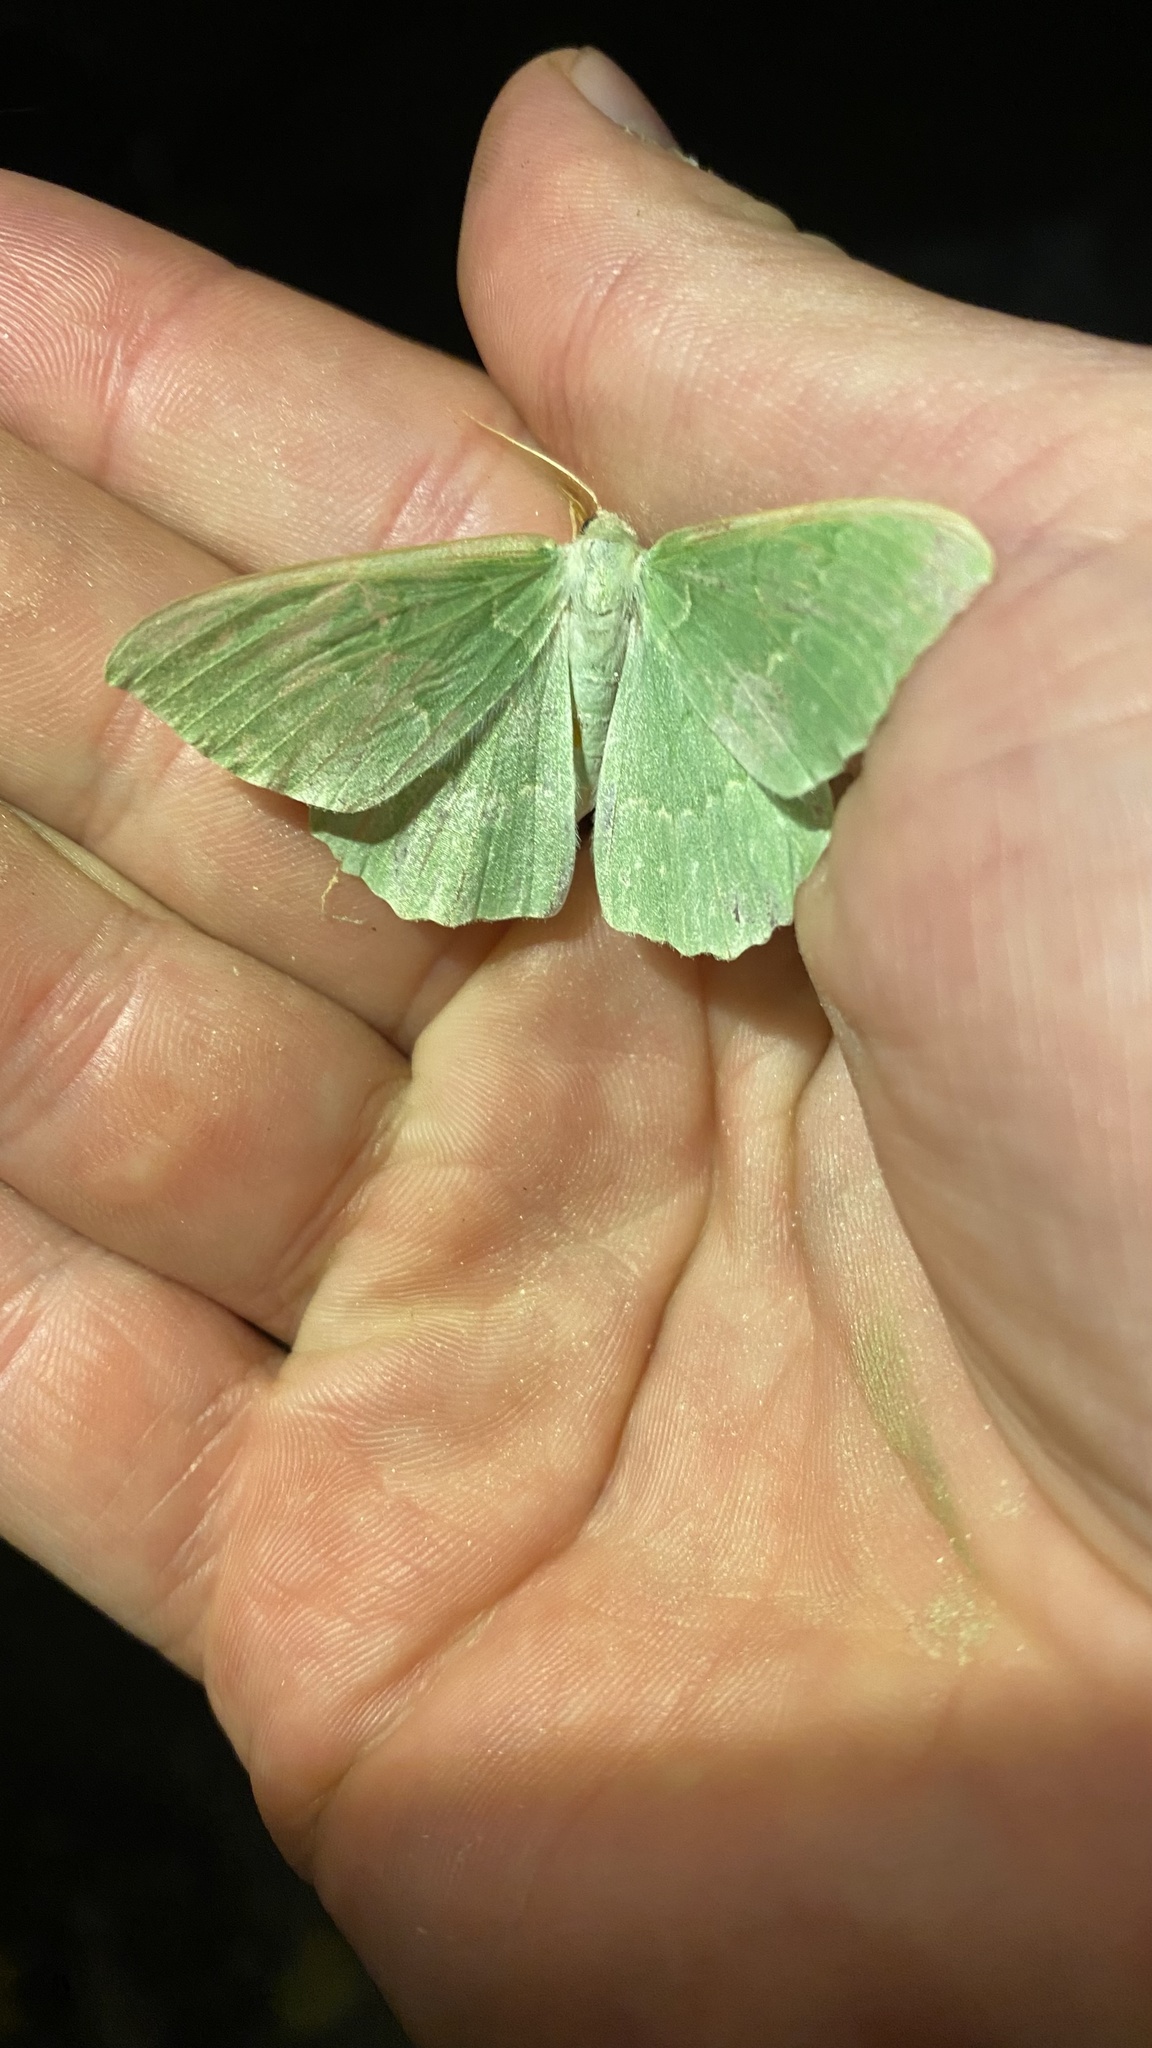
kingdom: Animalia
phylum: Arthropoda
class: Insecta
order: Lepidoptera
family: Geometridae
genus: Geometra
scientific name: Geometra papilionaria
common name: Large emerald
